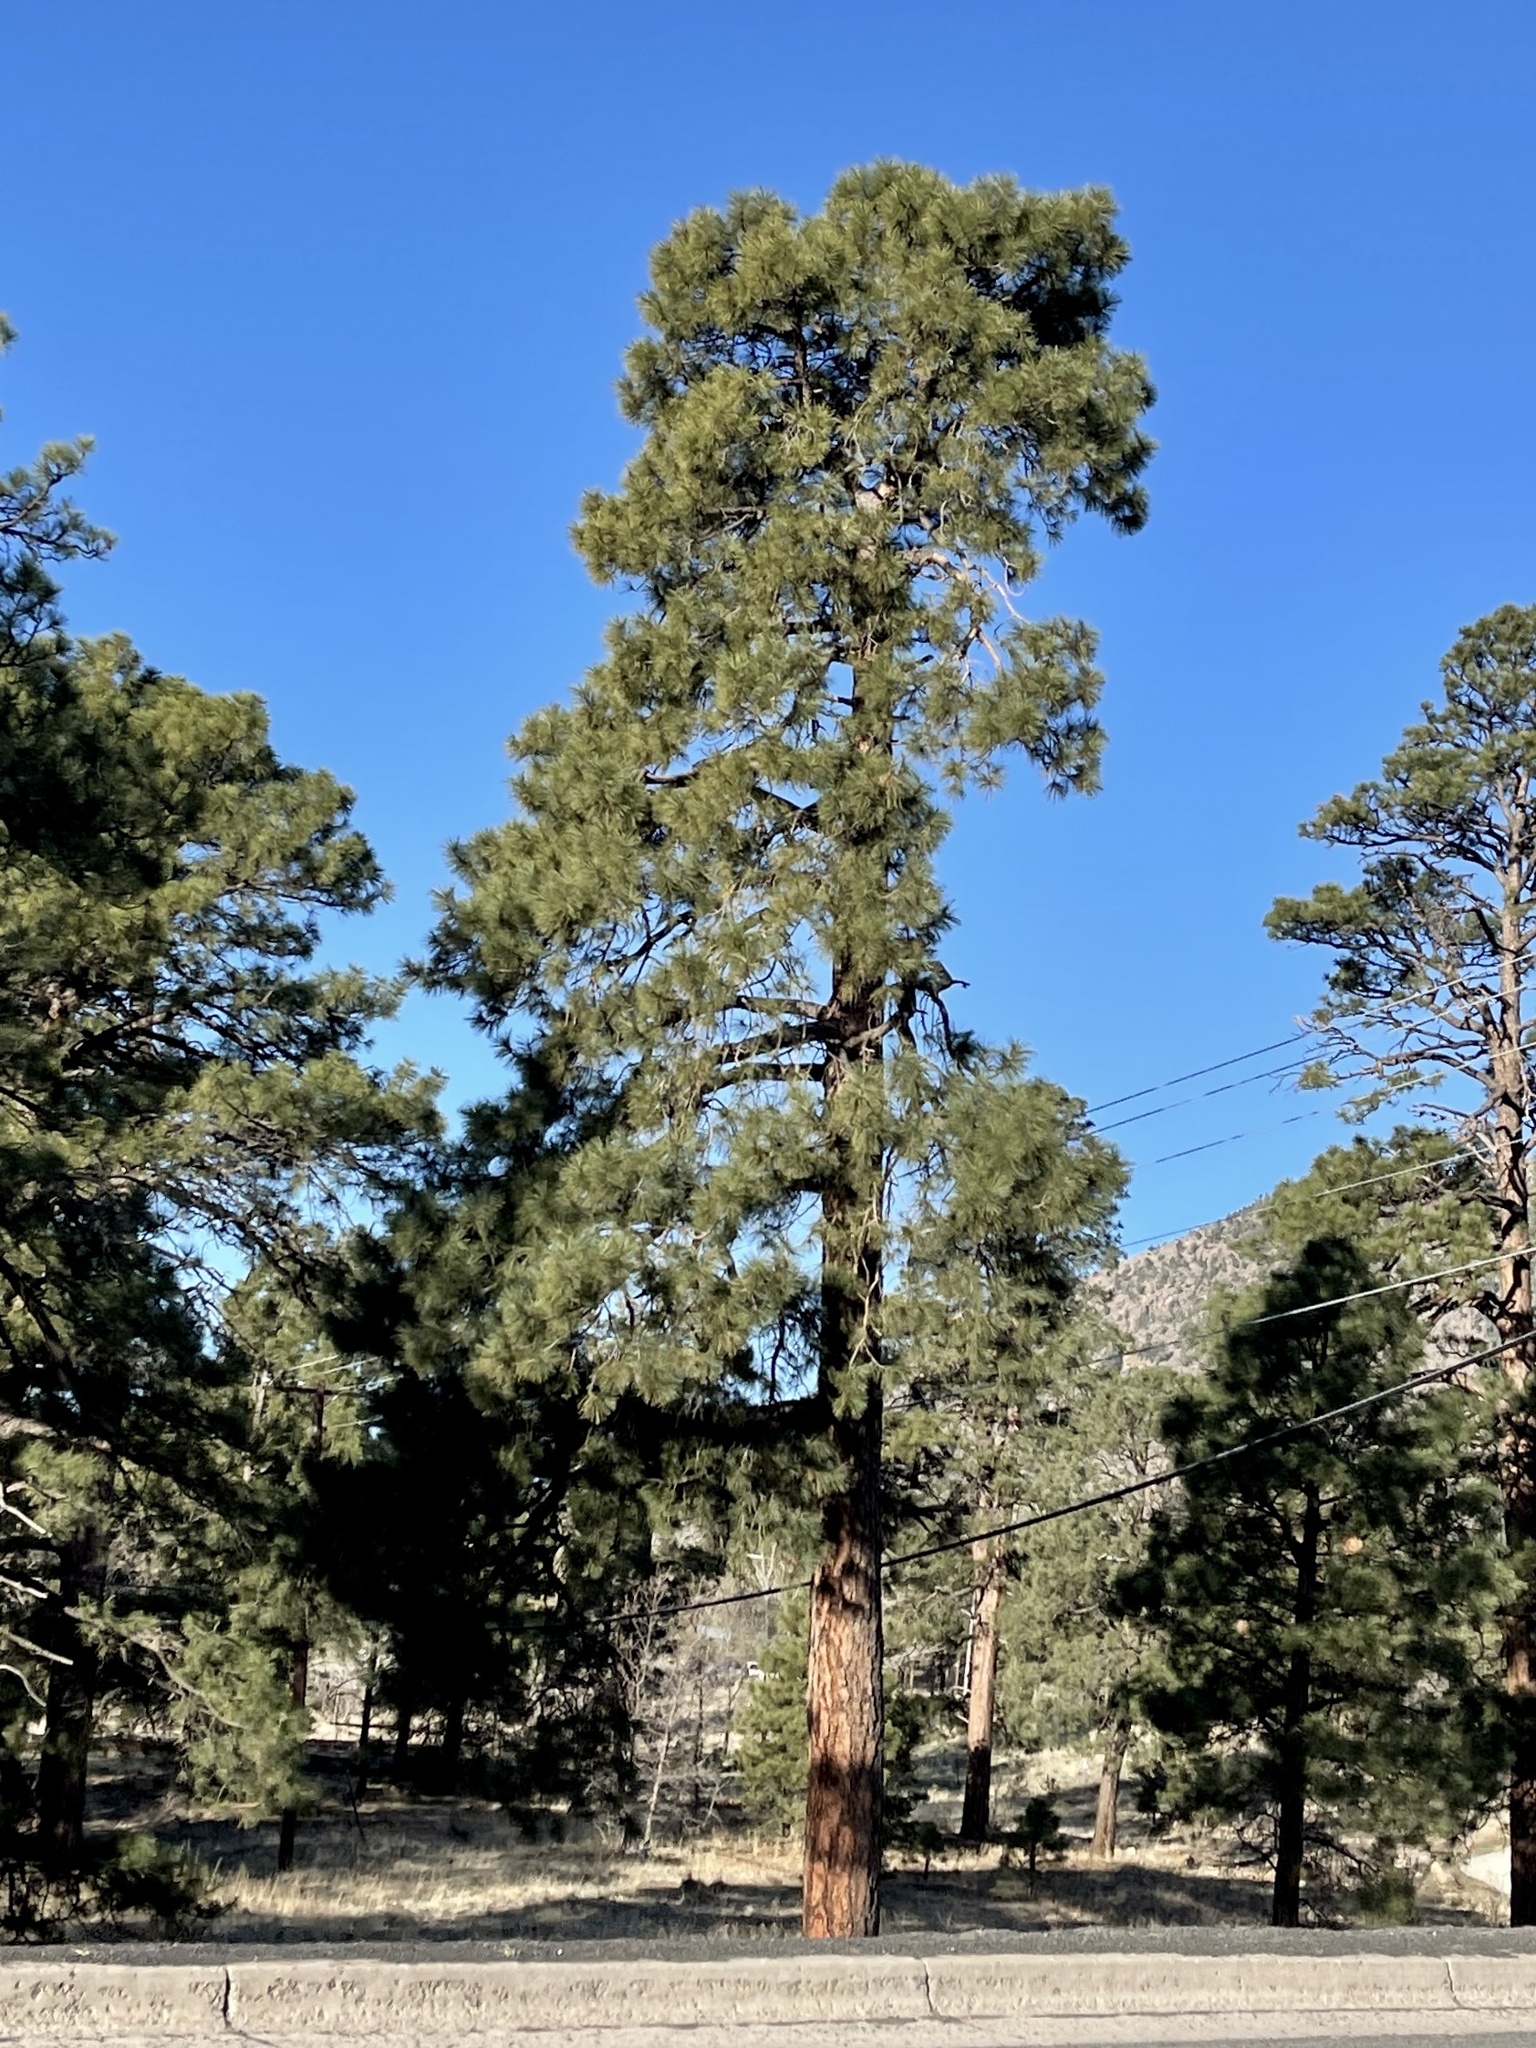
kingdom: Plantae
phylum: Tracheophyta
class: Pinopsida
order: Pinales
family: Pinaceae
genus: Pinus
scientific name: Pinus ponderosa
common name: Western yellow-pine
